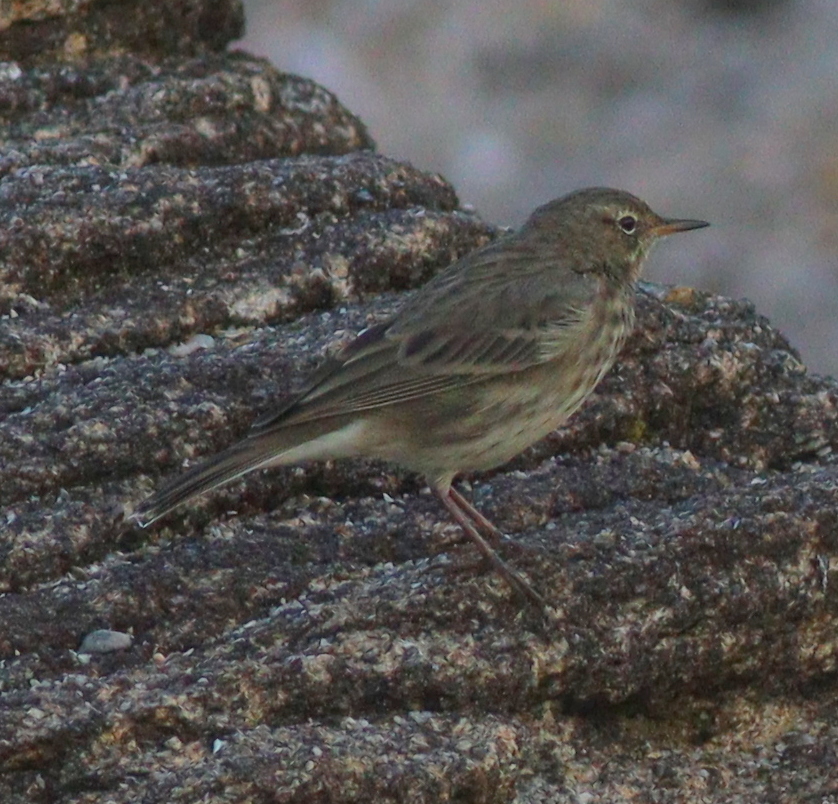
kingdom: Animalia
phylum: Chordata
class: Aves
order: Passeriformes
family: Motacillidae
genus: Anthus
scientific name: Anthus petrosus
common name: Eurasian rock pipit
